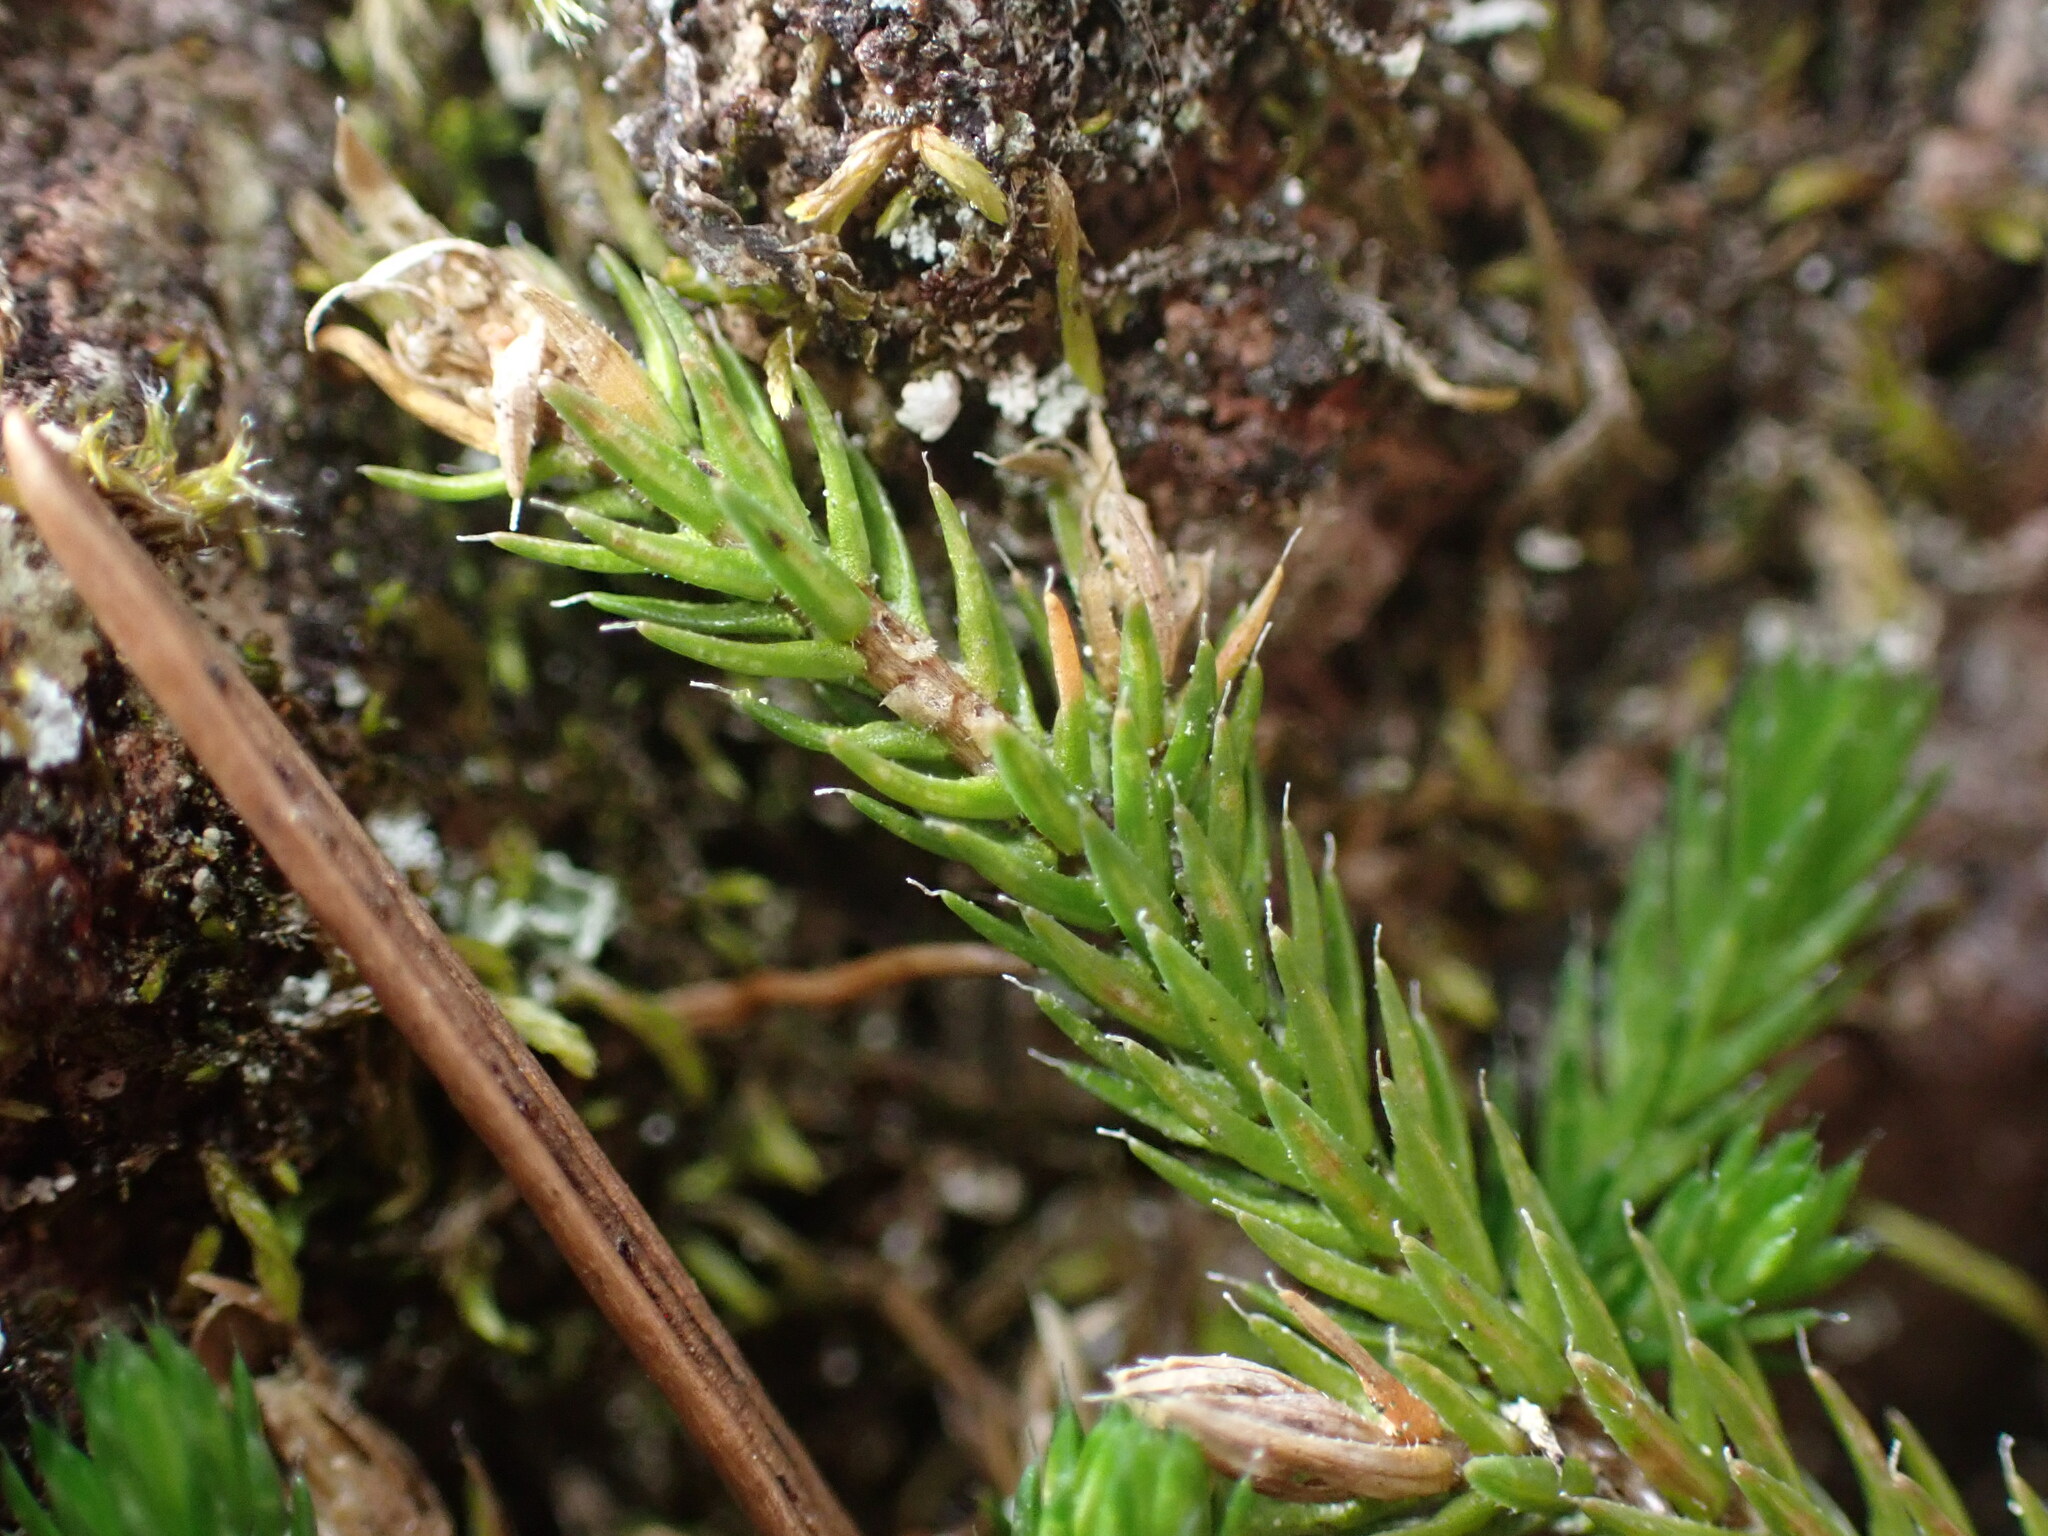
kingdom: Plantae
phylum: Tracheophyta
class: Lycopodiopsida
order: Selaginellales
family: Selaginellaceae
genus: Selaginella
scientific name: Selaginella wallacei
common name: Wallace's selaginella
